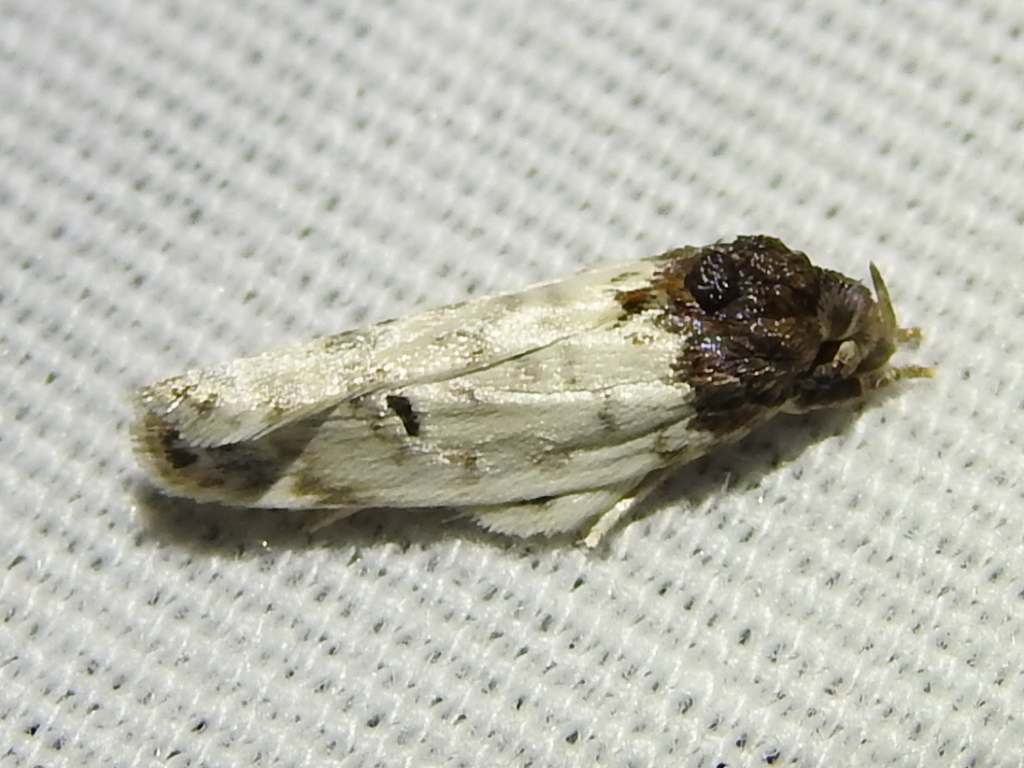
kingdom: Animalia
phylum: Arthropoda
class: Insecta
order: Lepidoptera
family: Depressariidae
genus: Antaeotricha
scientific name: Antaeotricha irene
